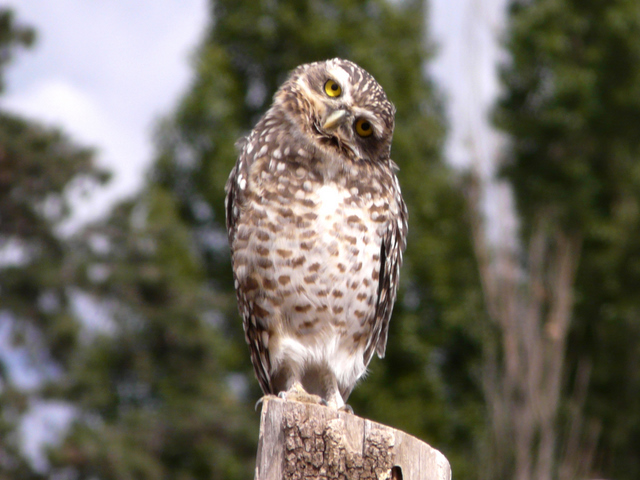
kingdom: Animalia
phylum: Chordata
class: Aves
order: Strigiformes
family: Strigidae
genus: Athene
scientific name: Athene cunicularia
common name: Burrowing owl
